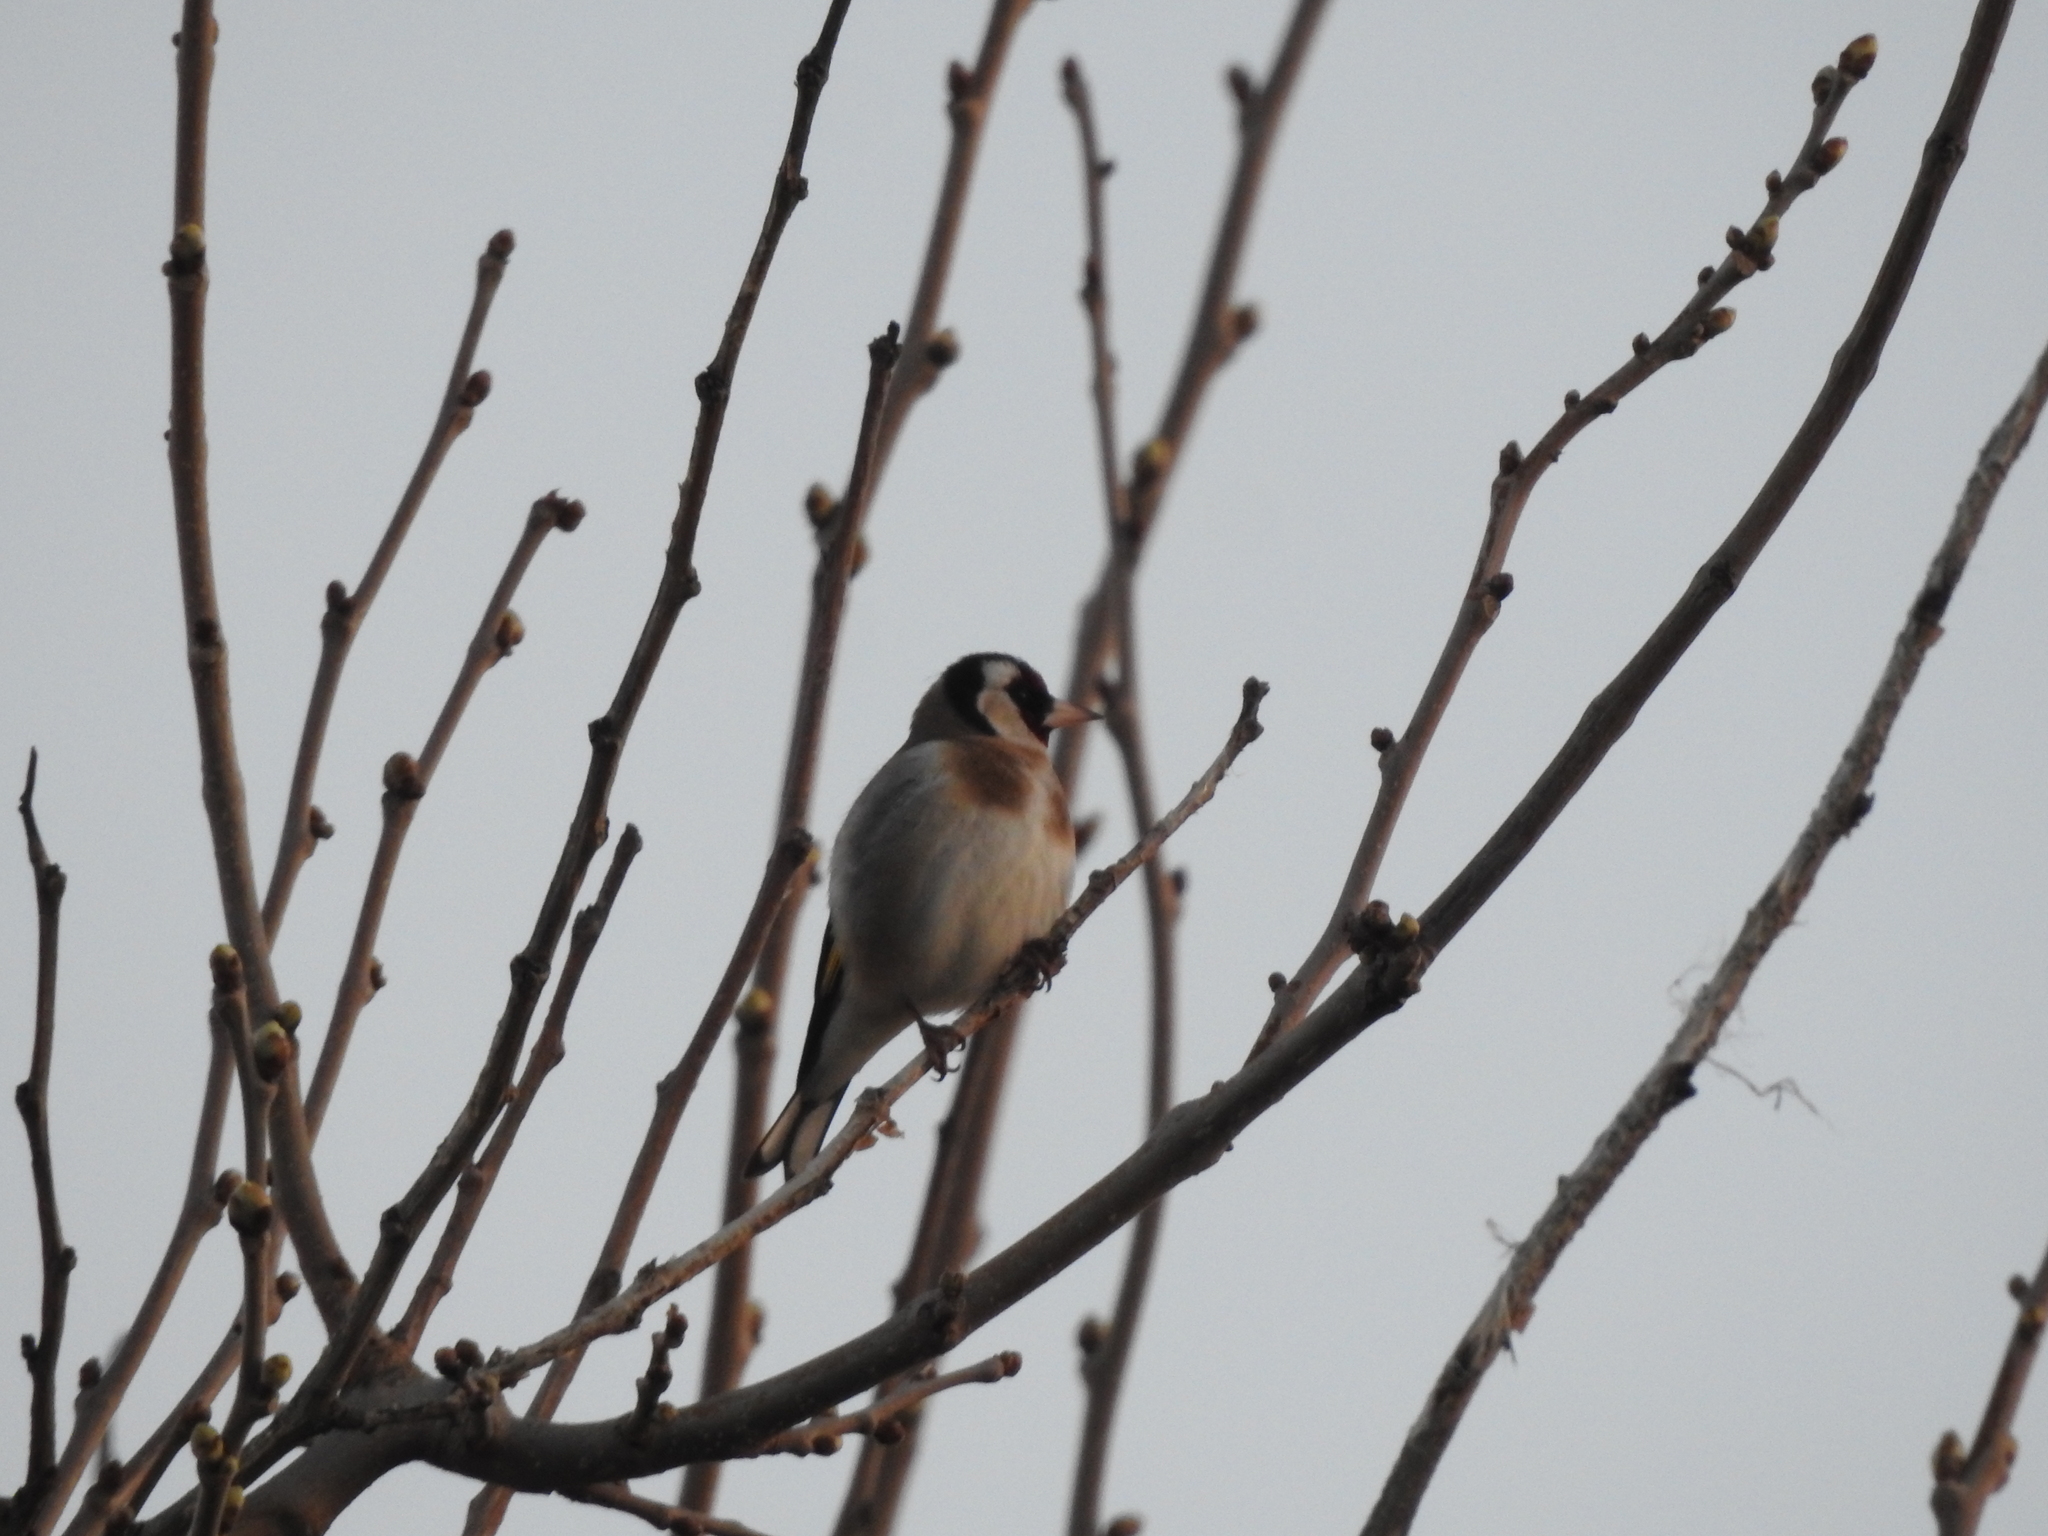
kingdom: Animalia
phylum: Chordata
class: Aves
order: Passeriformes
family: Fringillidae
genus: Carduelis
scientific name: Carduelis carduelis
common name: European goldfinch
